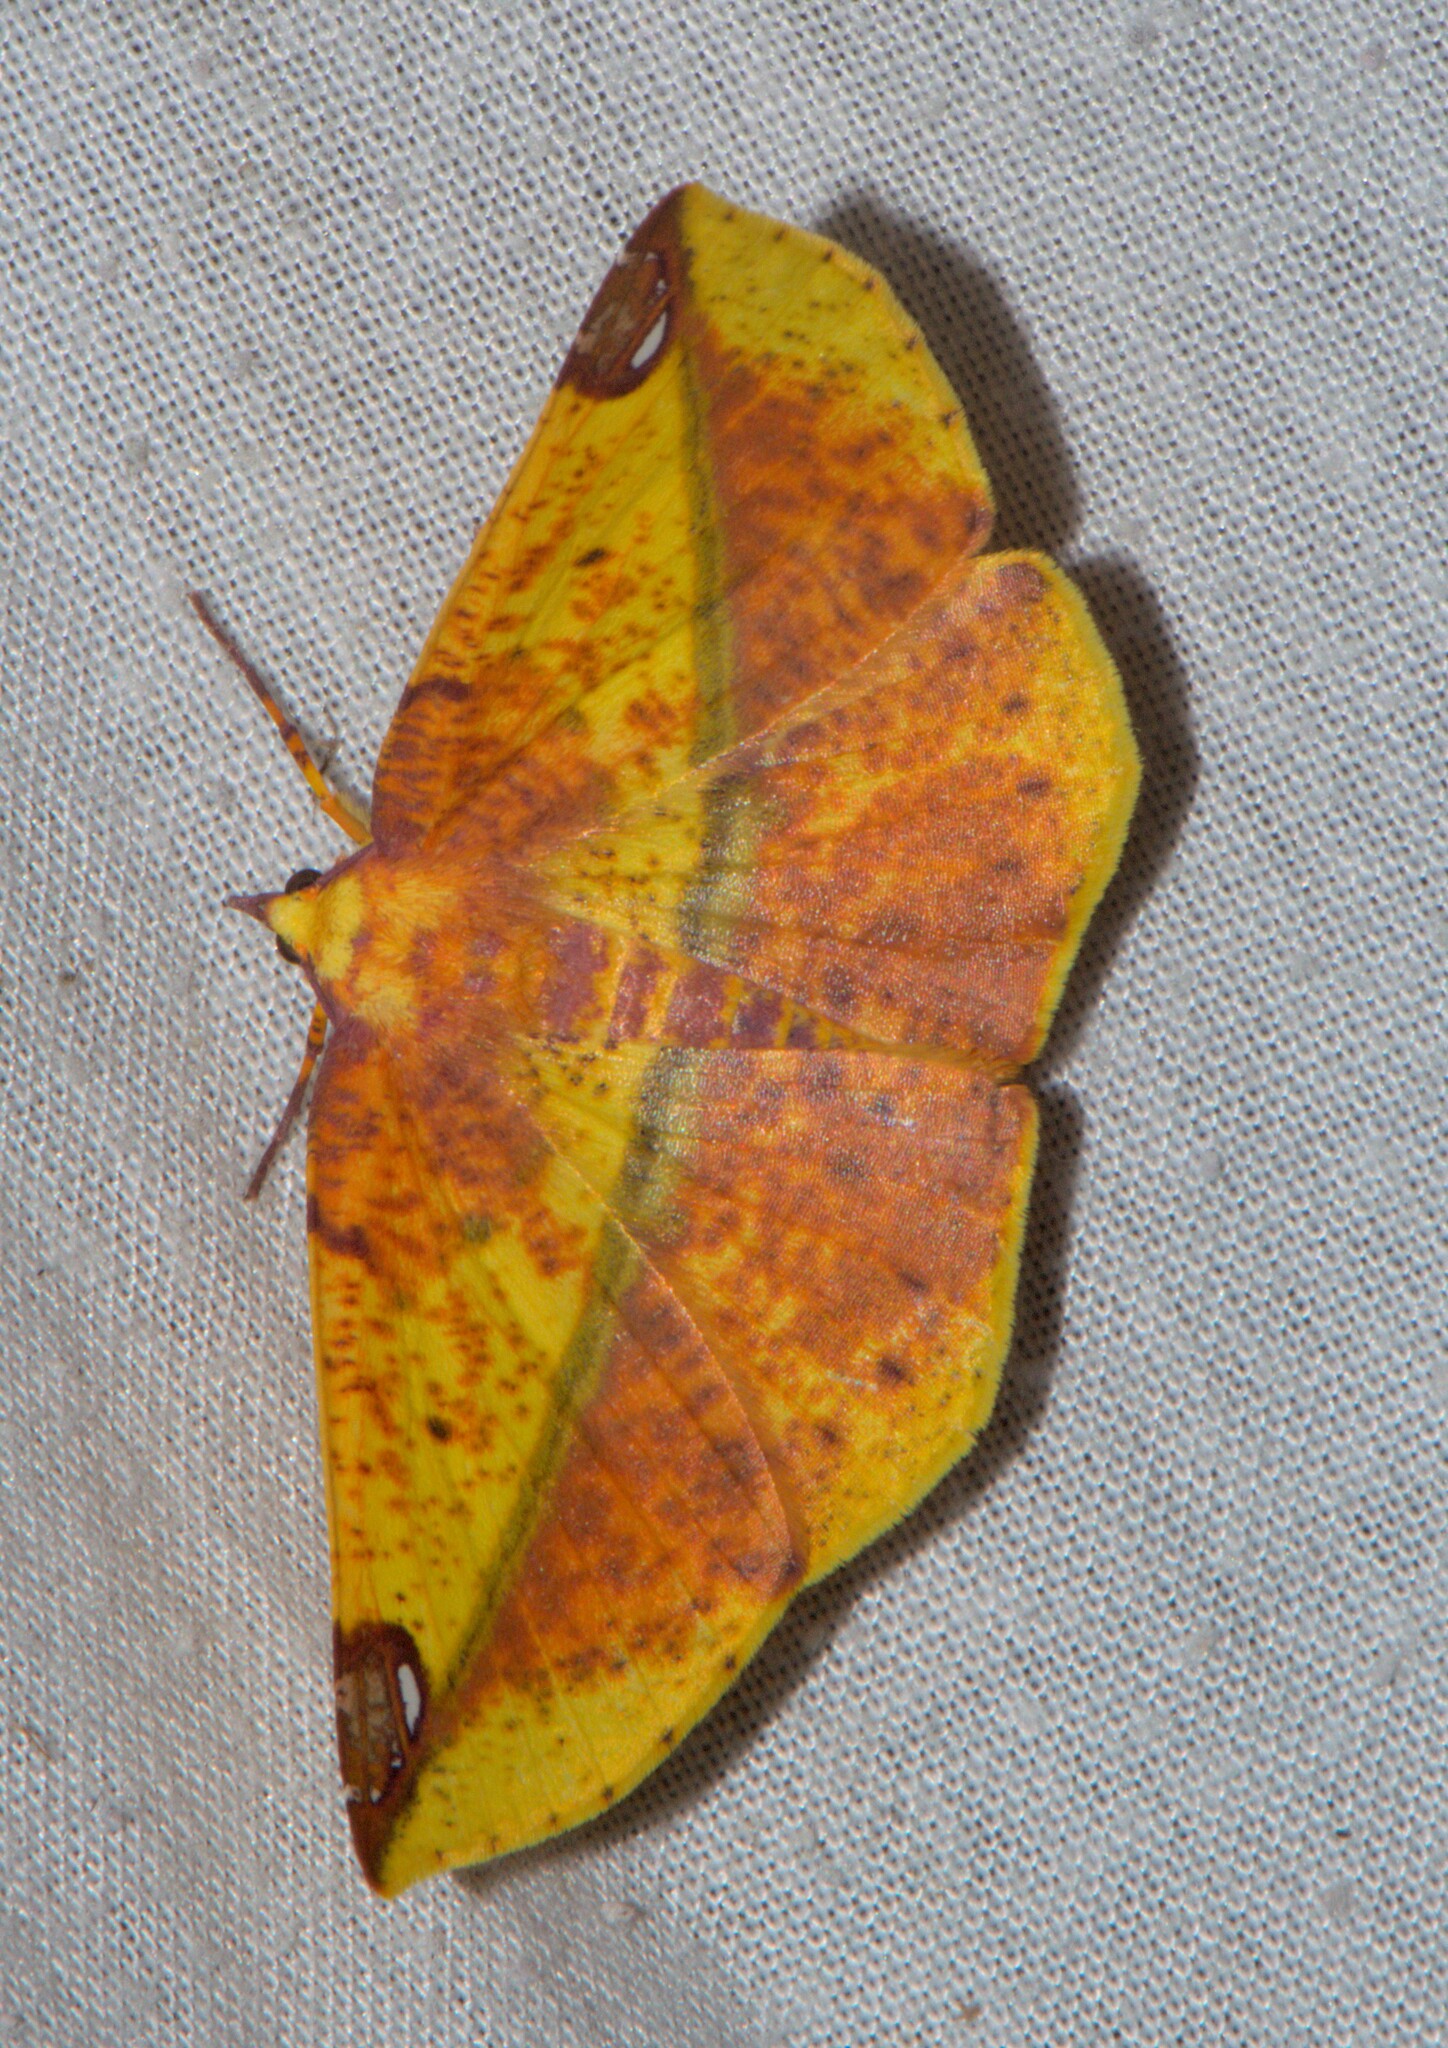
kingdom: Animalia
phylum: Arthropoda
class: Insecta
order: Lepidoptera
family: Geometridae
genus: Mimomiza
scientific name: Mimomiza cruentaria
